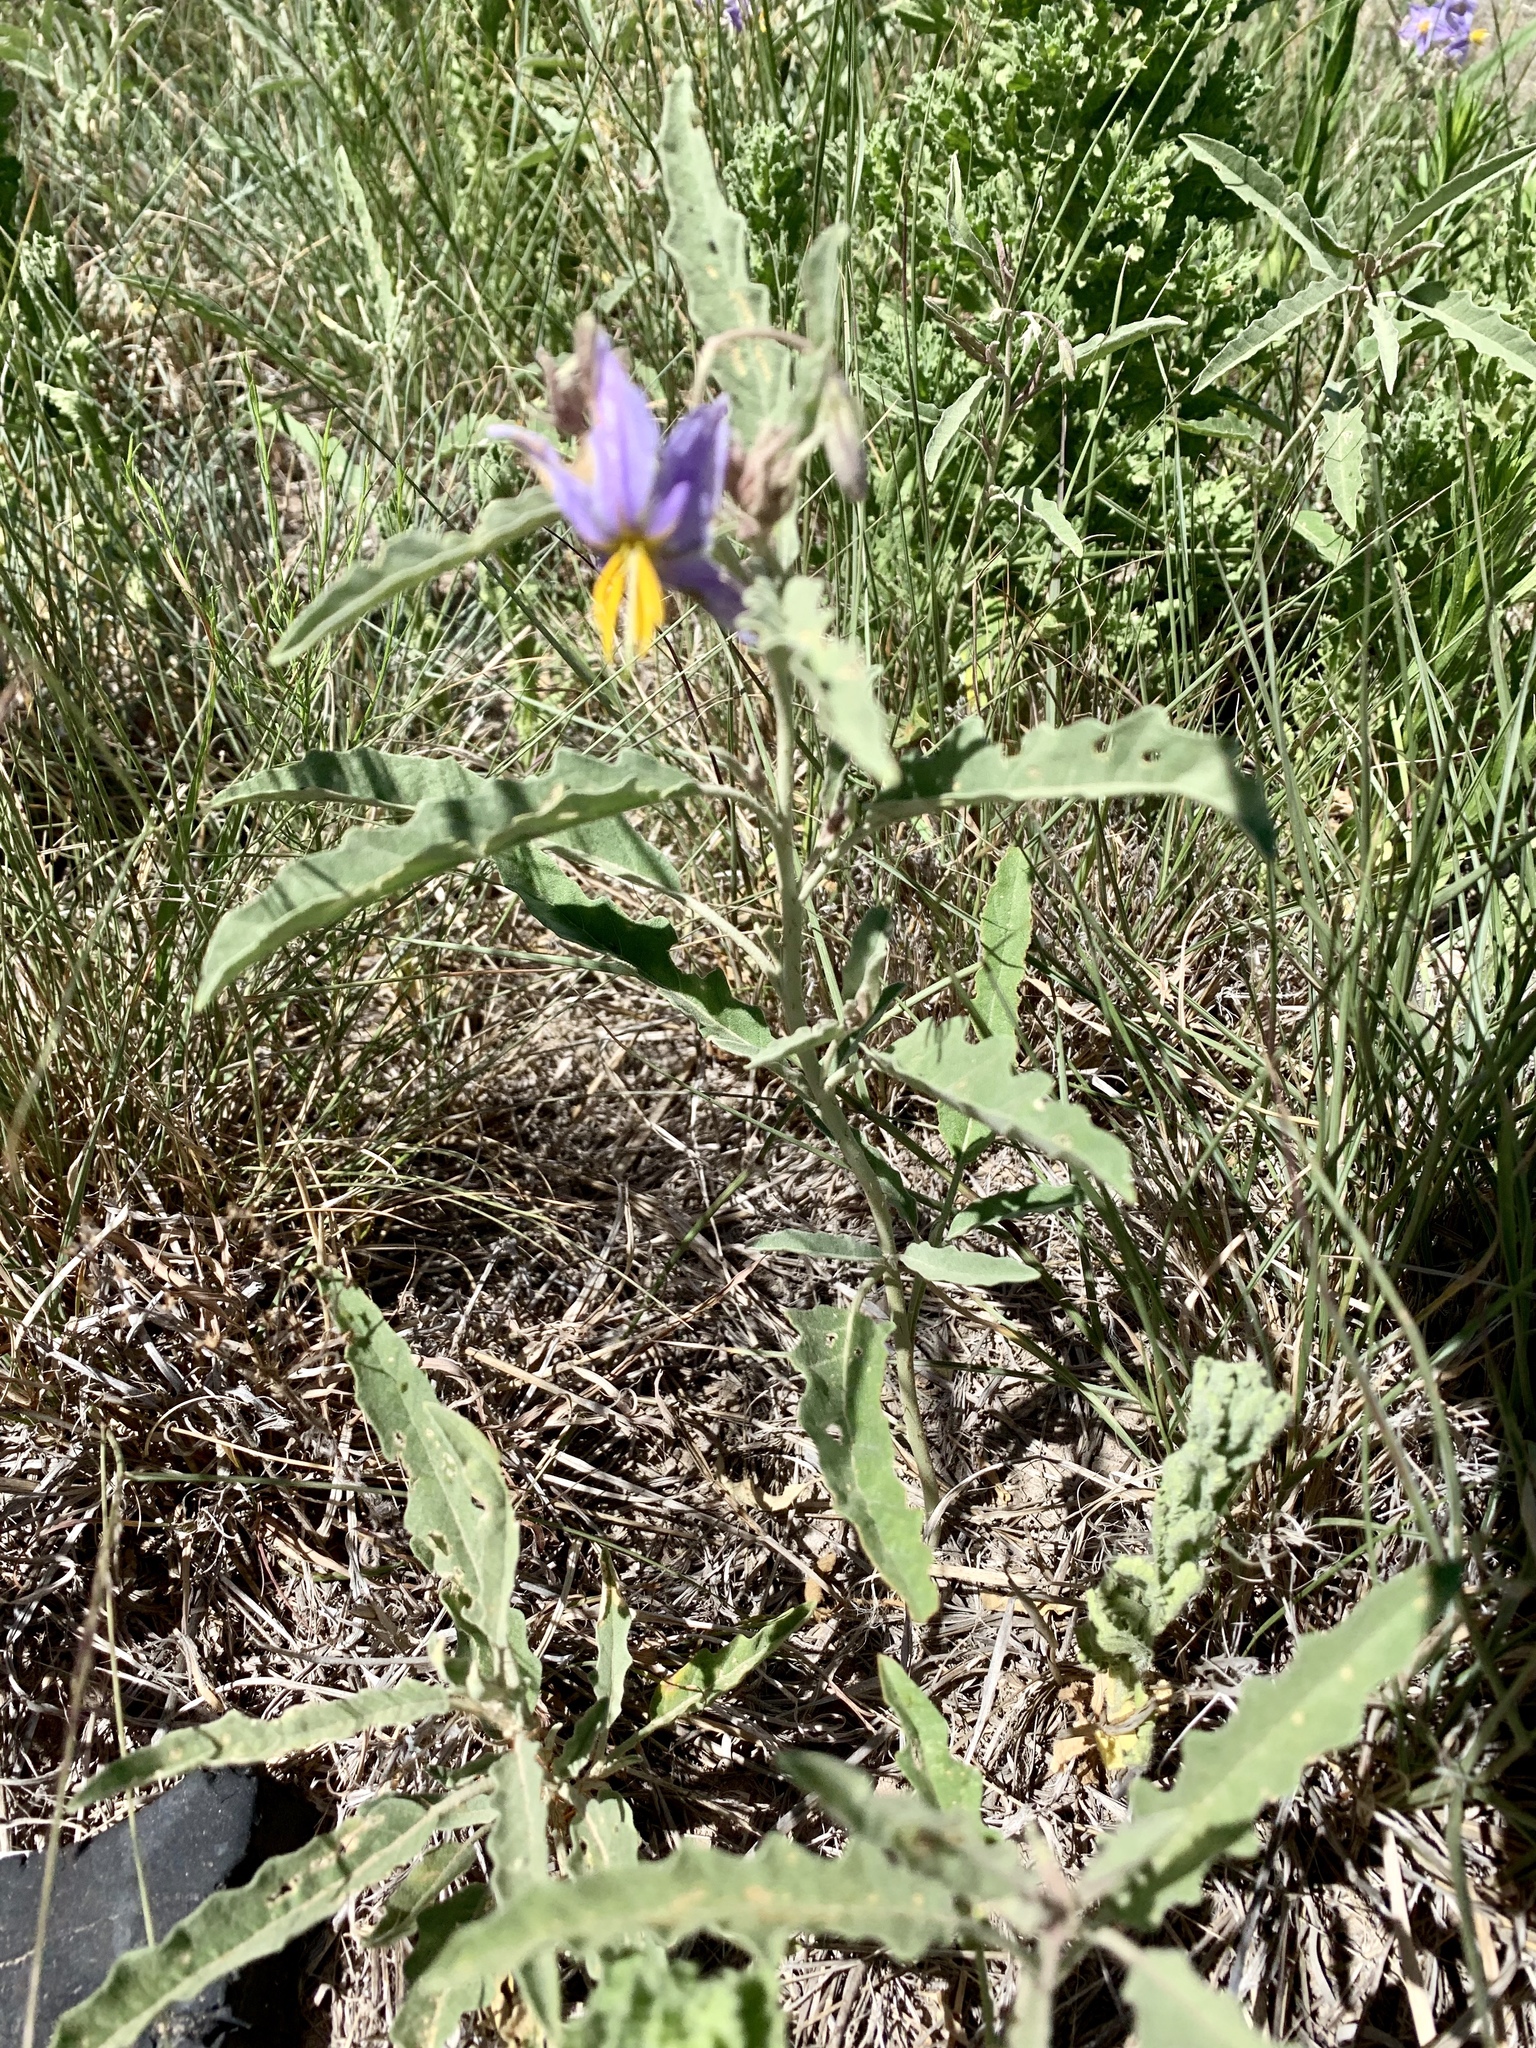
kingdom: Plantae
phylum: Tracheophyta
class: Magnoliopsida
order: Solanales
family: Solanaceae
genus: Solanum
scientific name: Solanum elaeagnifolium
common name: Silverleaf nightshade
